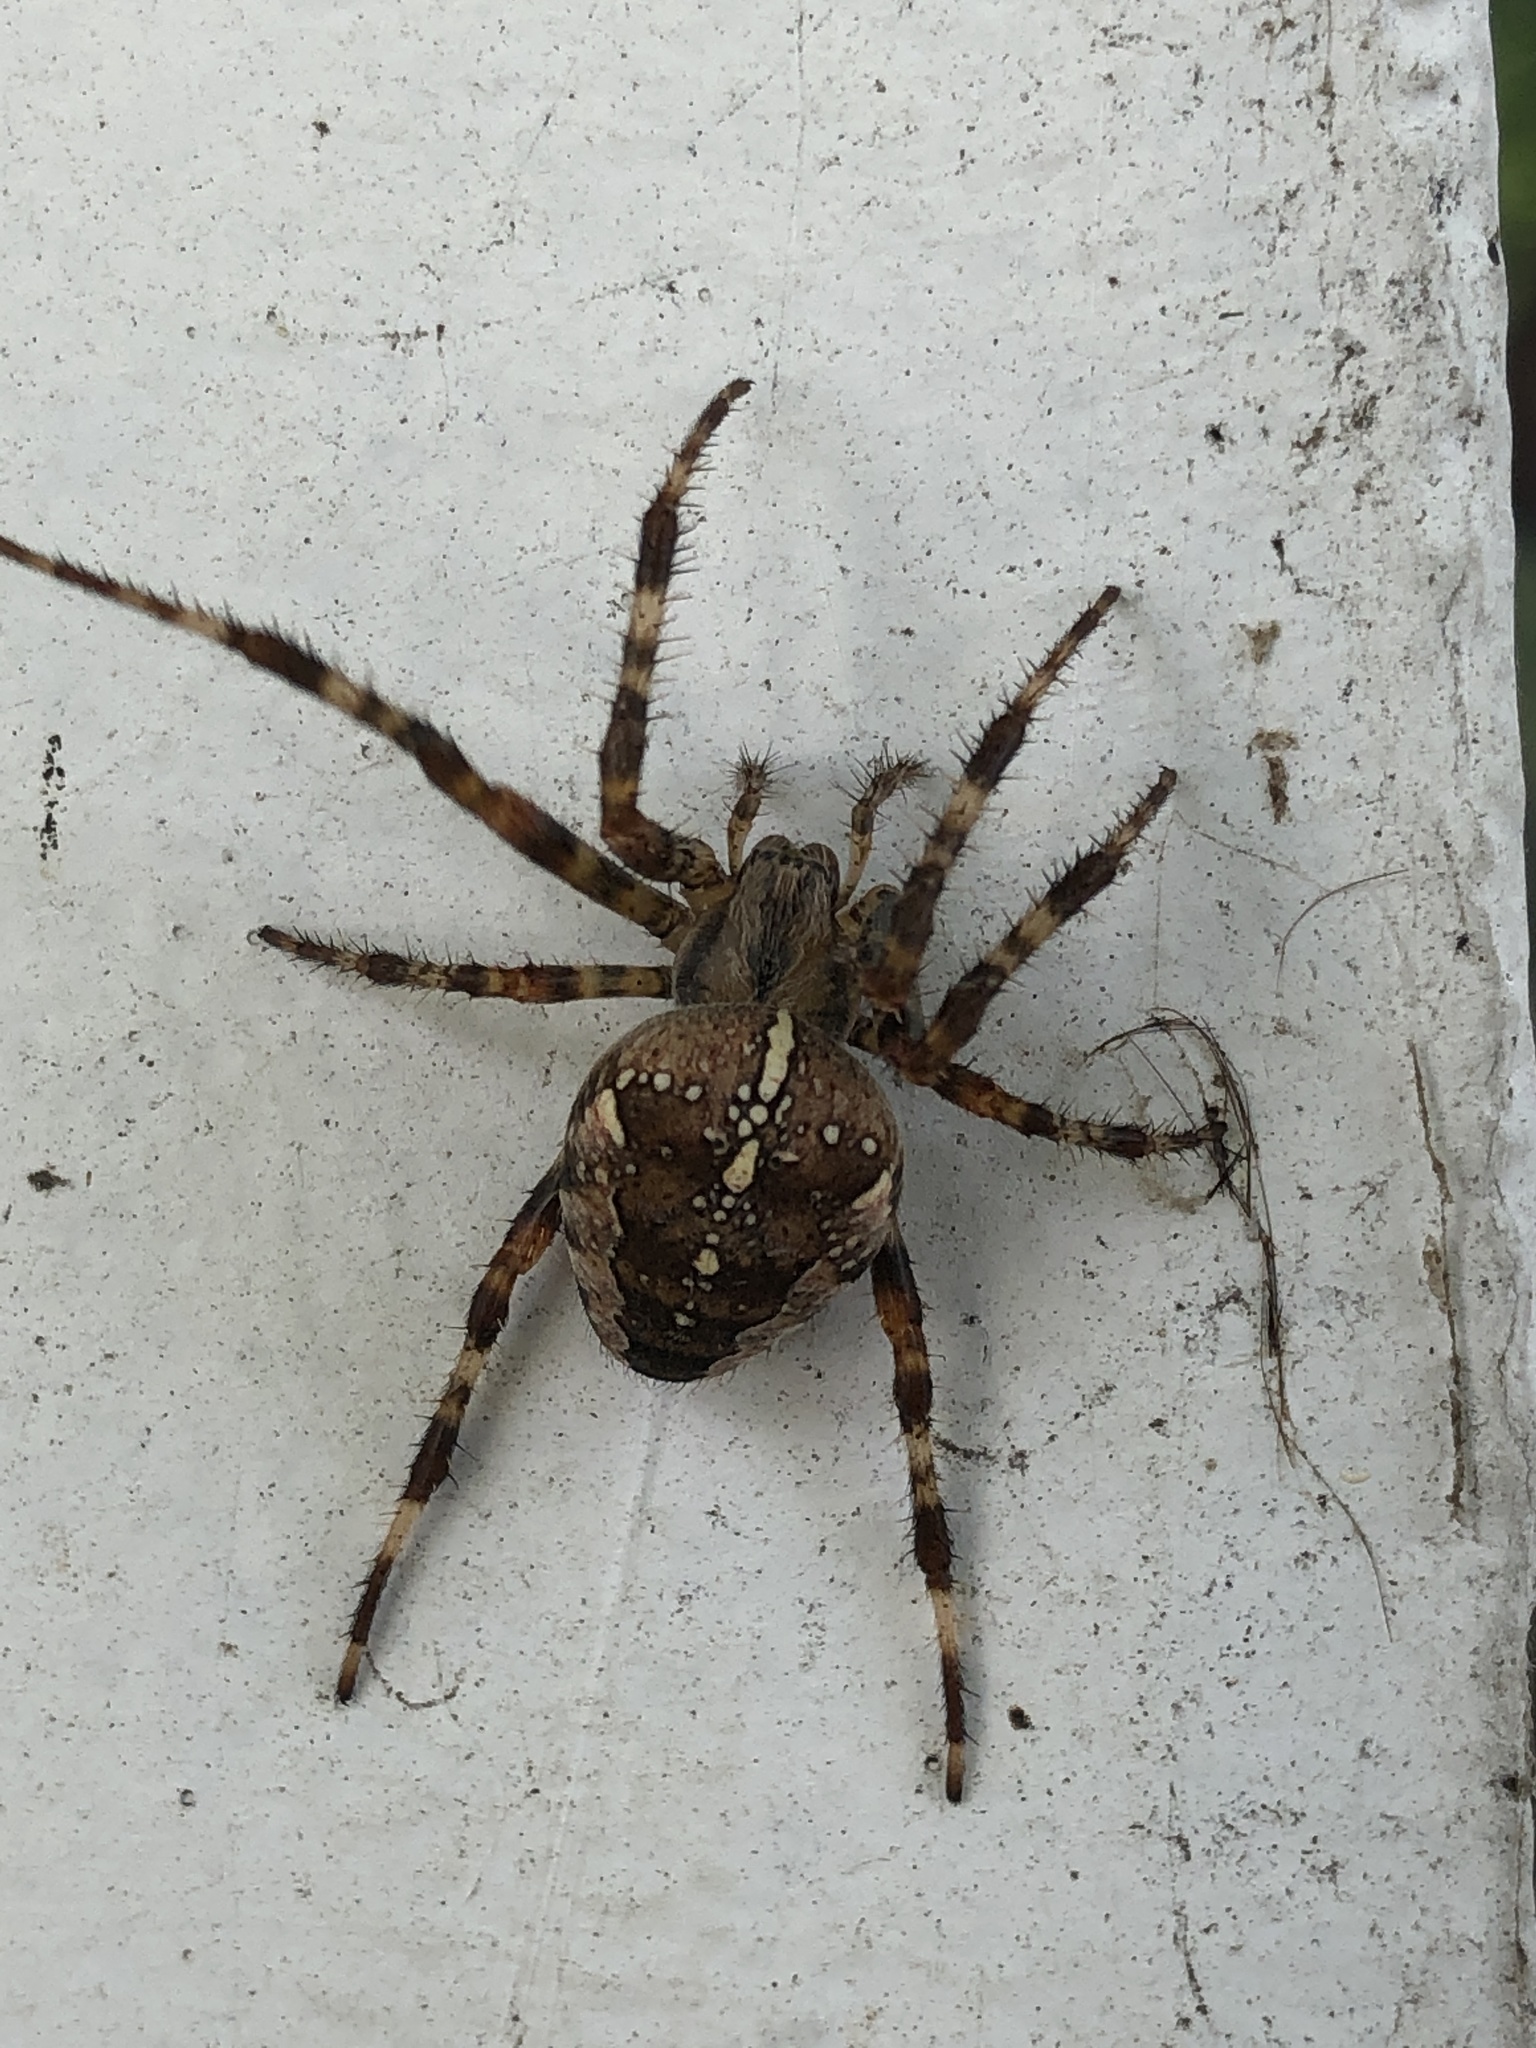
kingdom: Animalia
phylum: Arthropoda
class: Arachnida
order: Araneae
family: Araneidae
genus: Araneus
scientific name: Araneus diadematus
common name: Cross orbweaver
